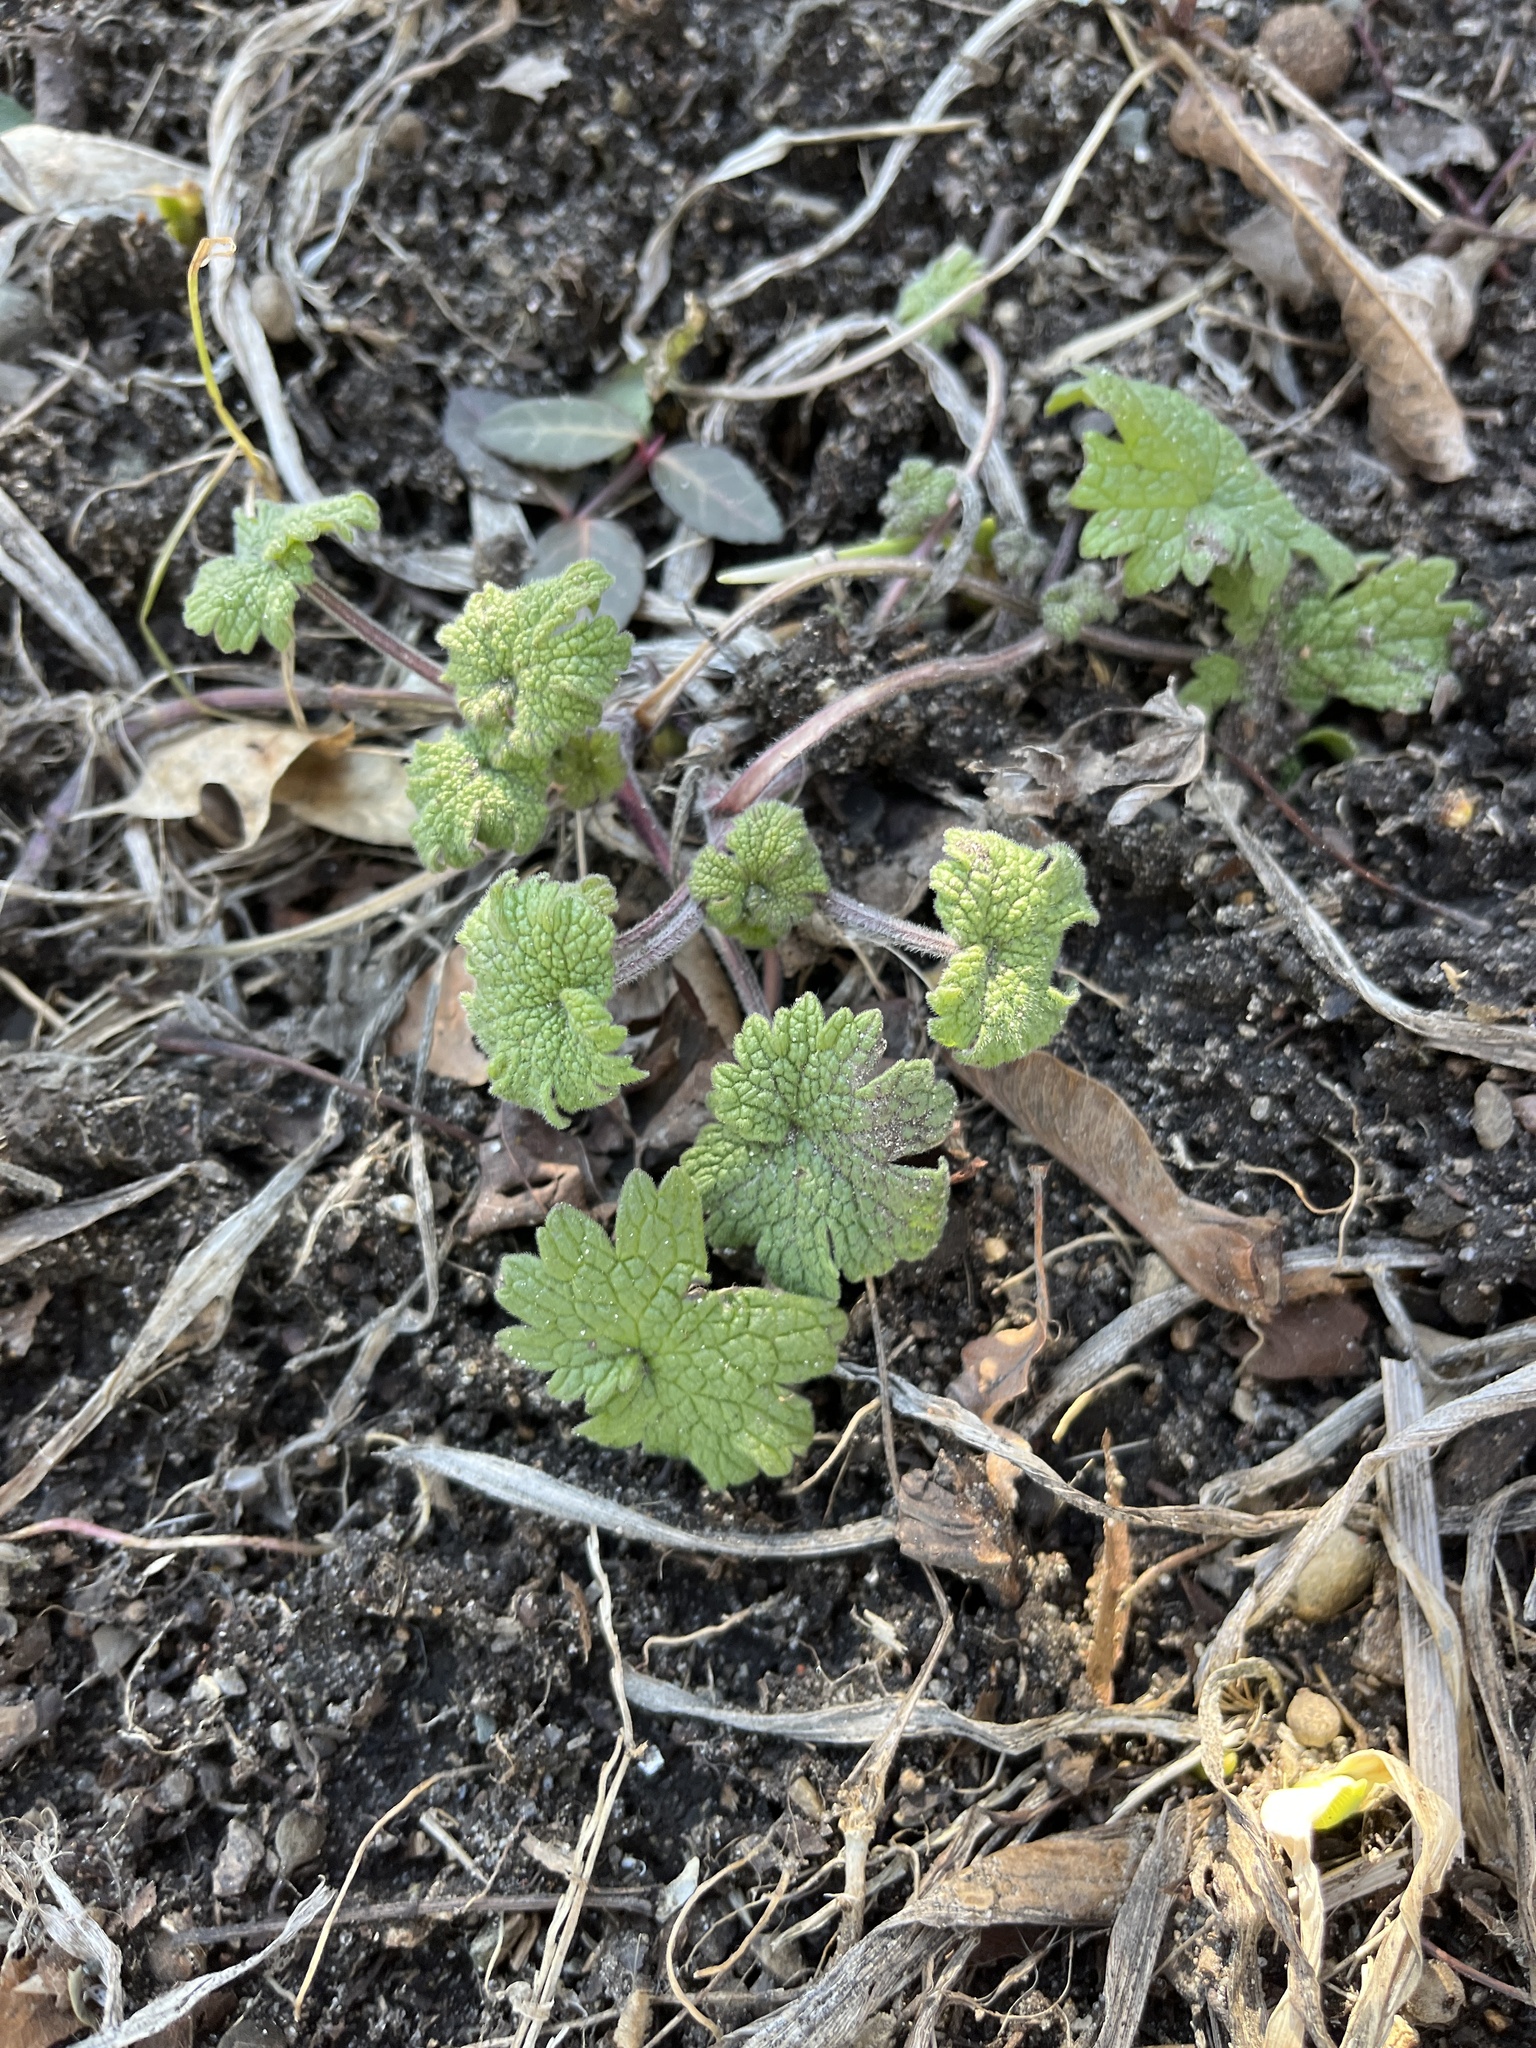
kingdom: Plantae
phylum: Tracheophyta
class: Magnoliopsida
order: Lamiales
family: Lamiaceae
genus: Leonurus
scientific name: Leonurus cardiaca
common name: Motherwort
